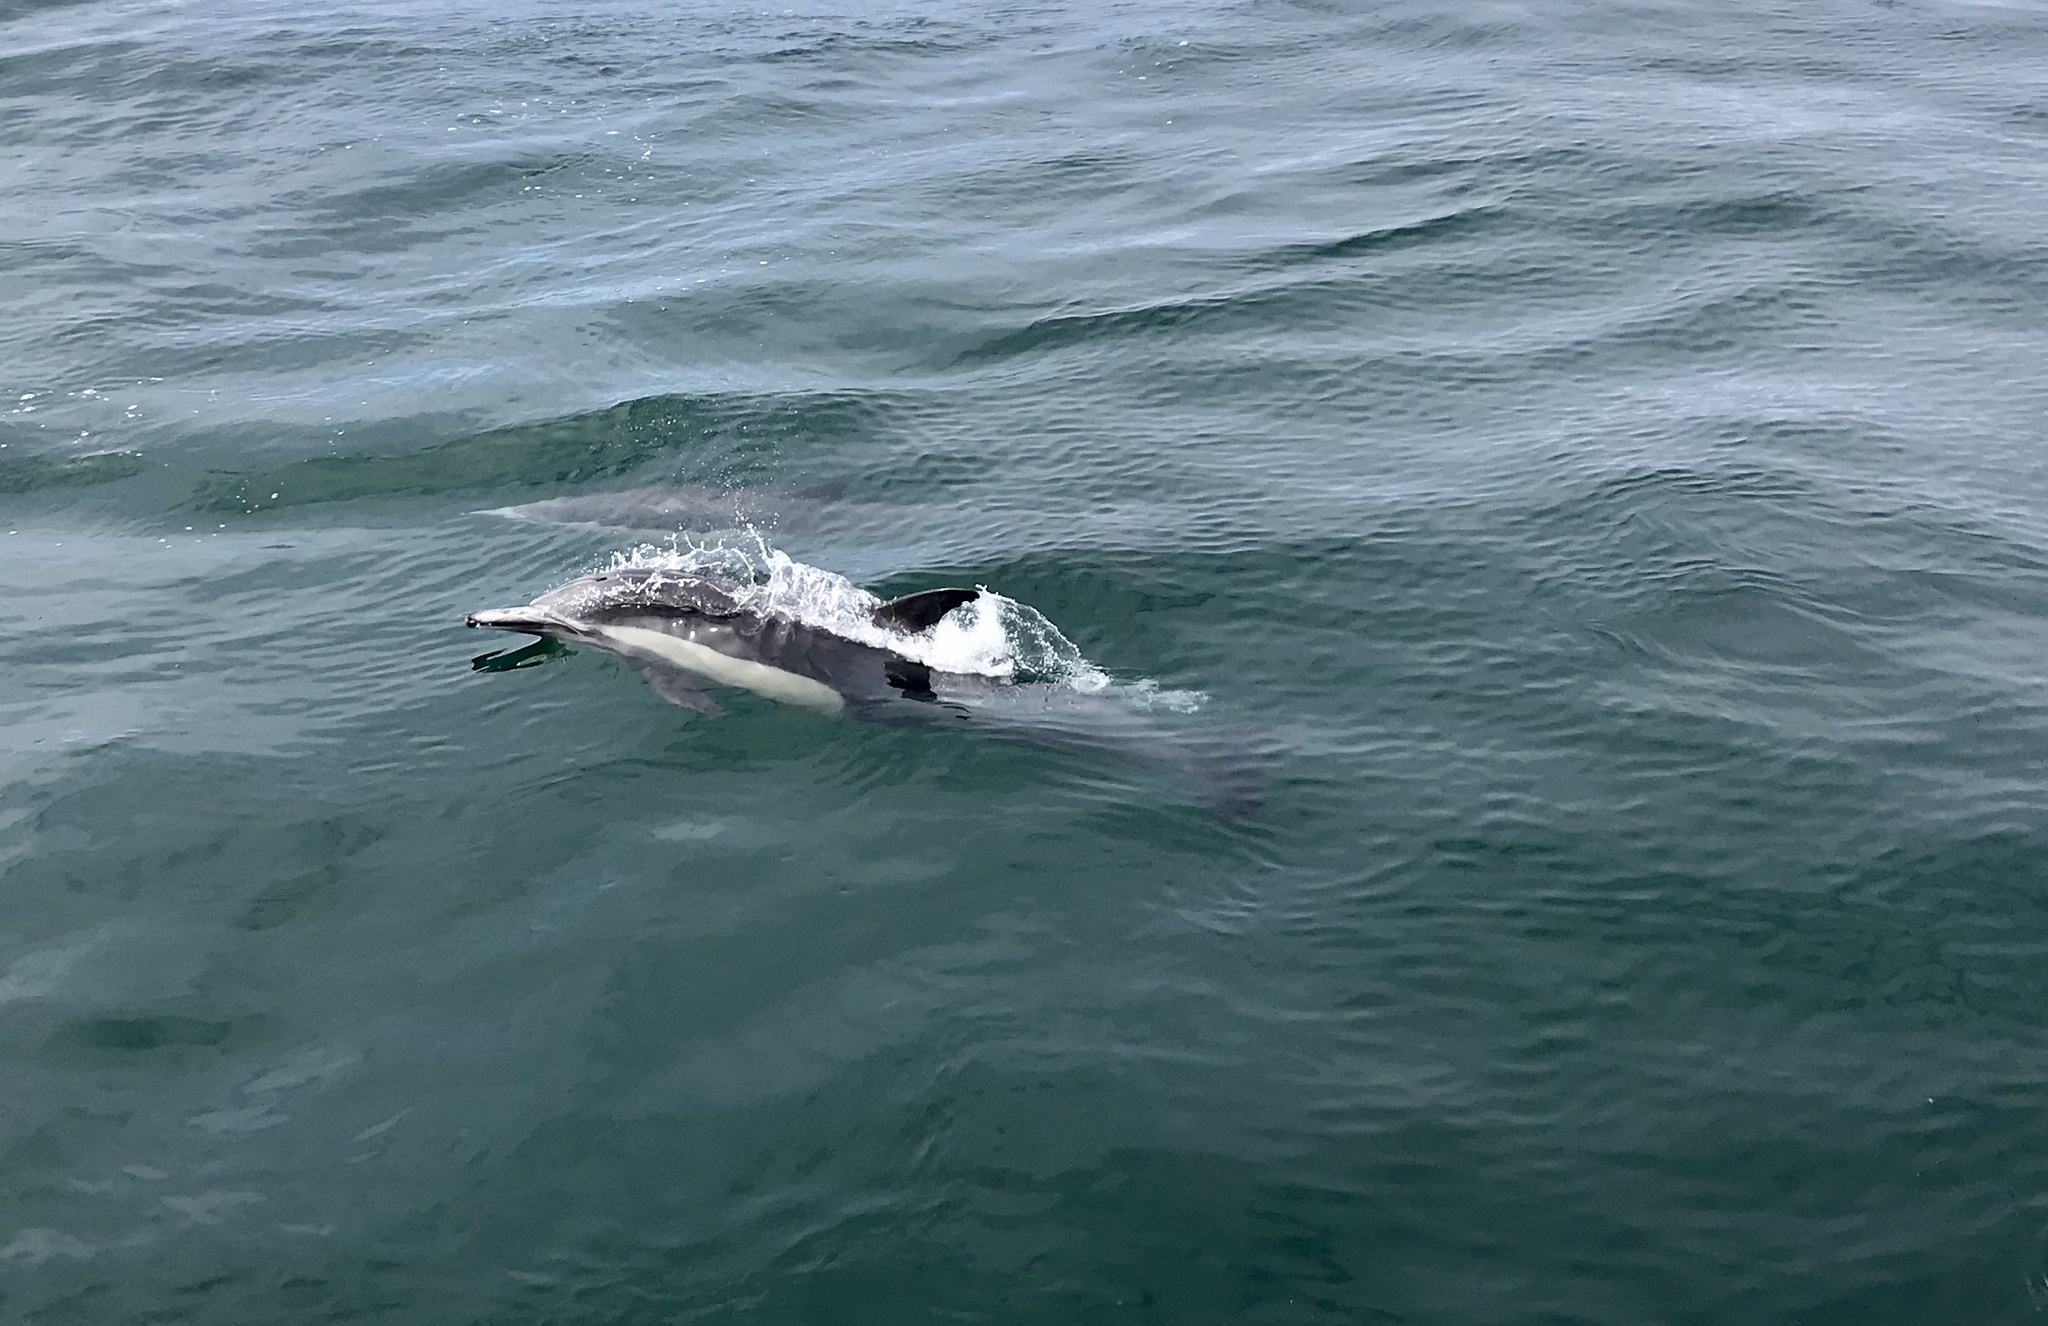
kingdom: Animalia
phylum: Chordata
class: Mammalia
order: Cetacea
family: Delphinidae
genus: Delphinus
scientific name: Delphinus delphis
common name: Common dolphin
